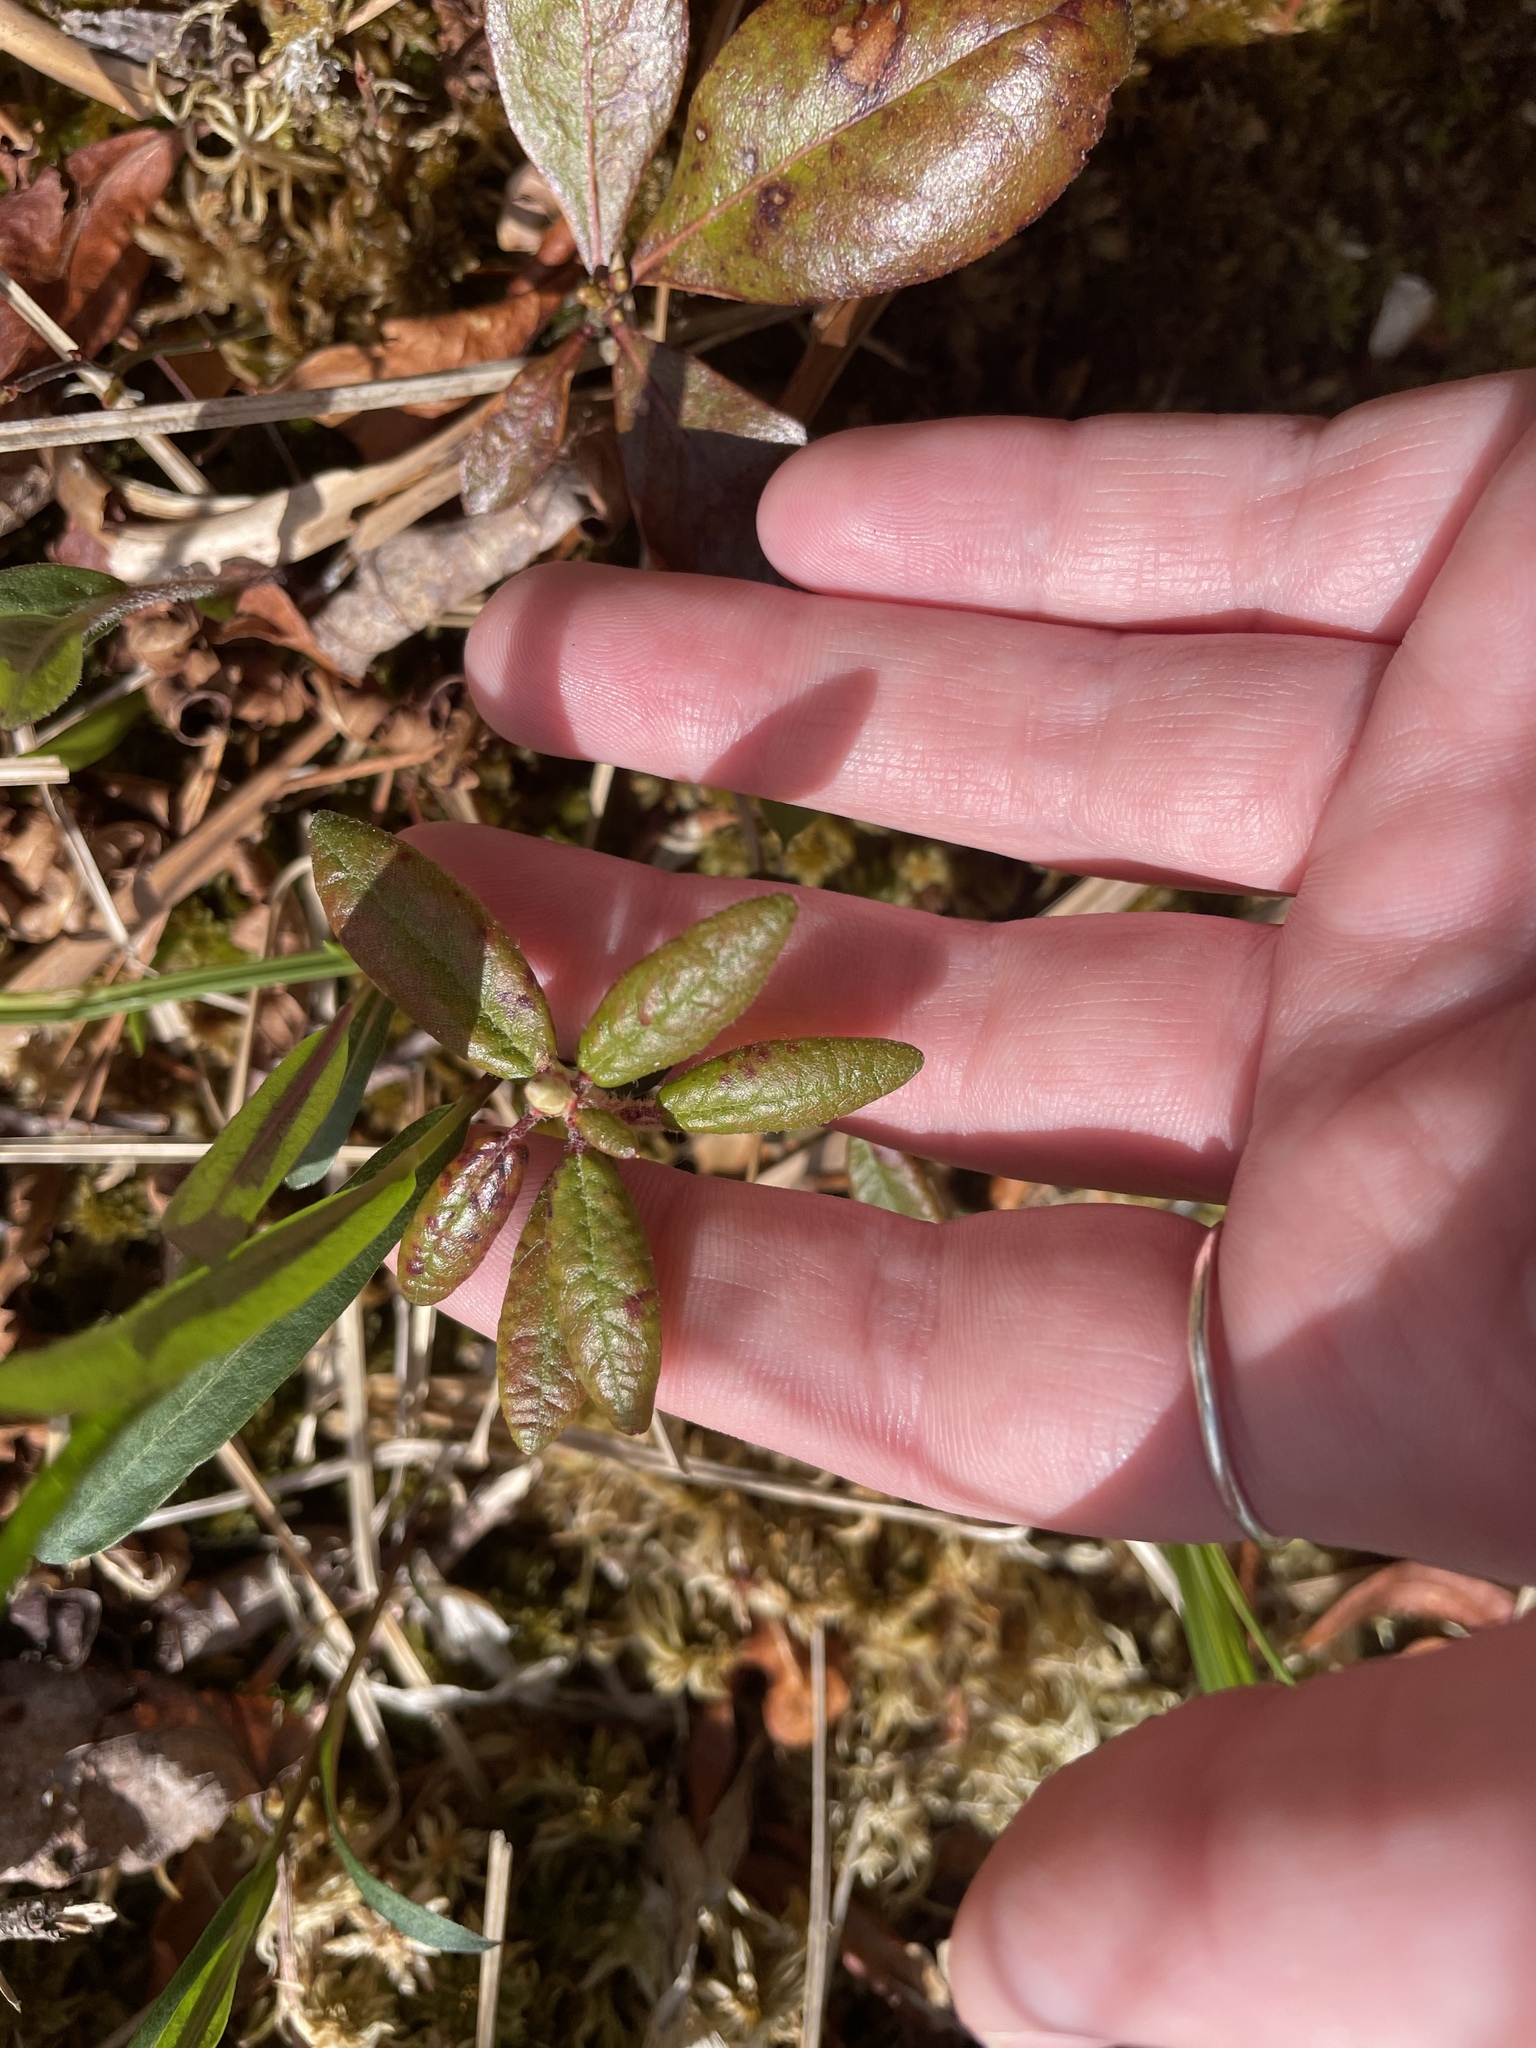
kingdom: Plantae
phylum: Tracheophyta
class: Magnoliopsida
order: Ericales
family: Ericaceae
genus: Rhododendron
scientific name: Rhododendron groenlandicum
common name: Bog labrador tea
